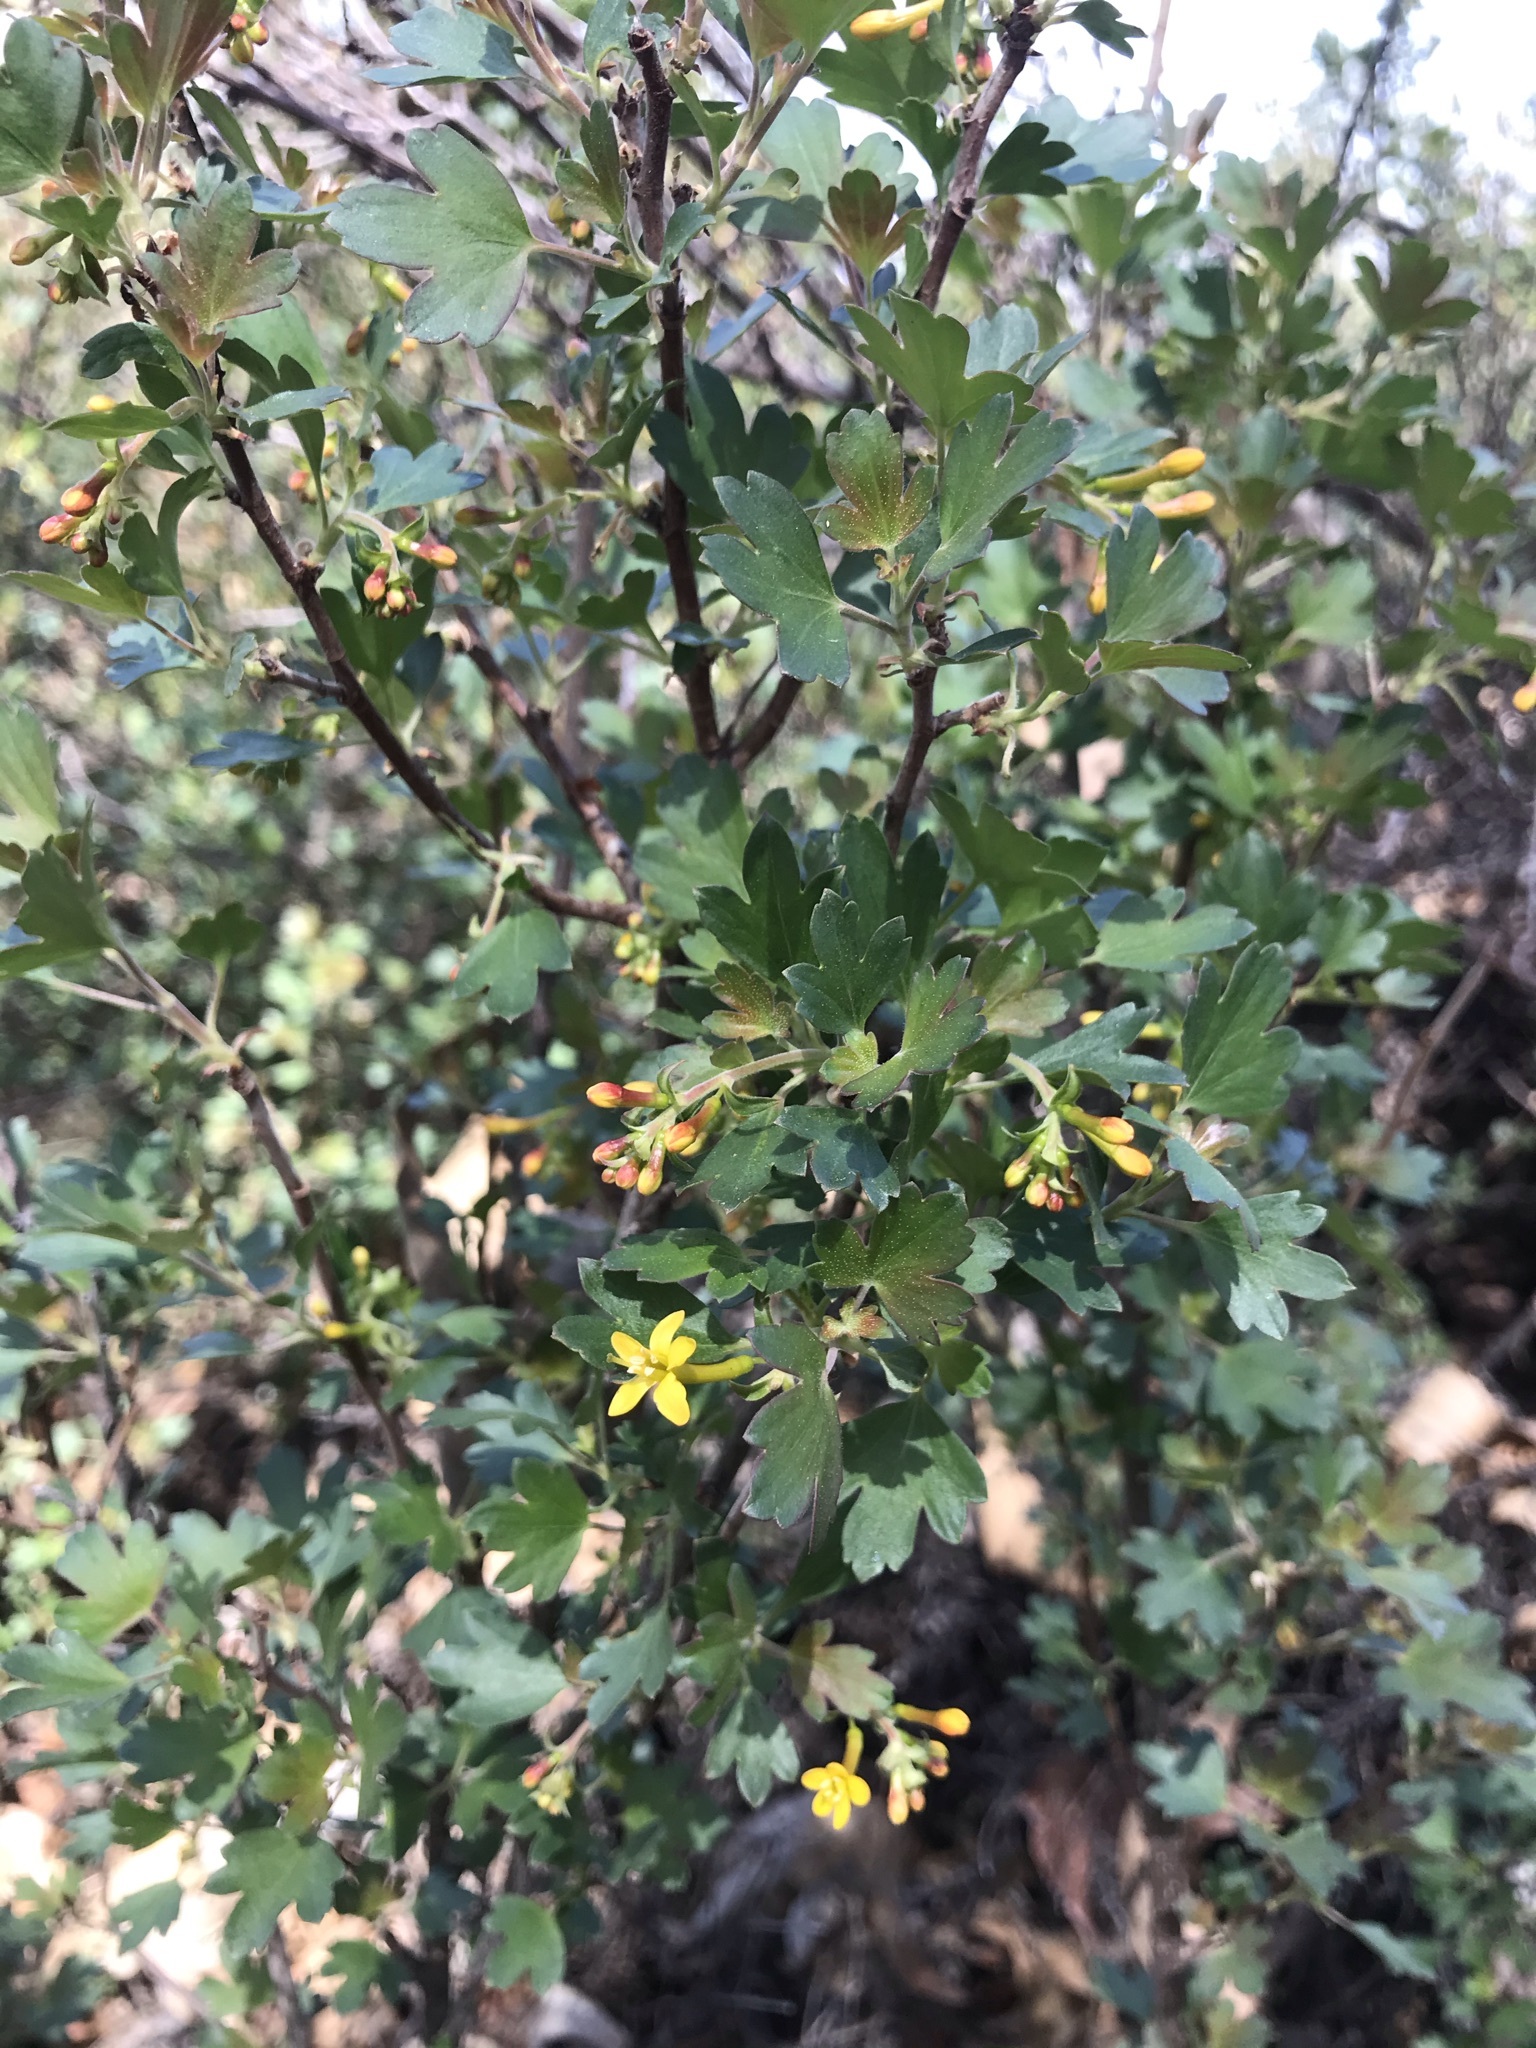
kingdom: Plantae
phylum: Tracheophyta
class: Magnoliopsida
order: Saxifragales
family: Grossulariaceae
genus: Ribes
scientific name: Ribes aureum
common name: Golden currant
